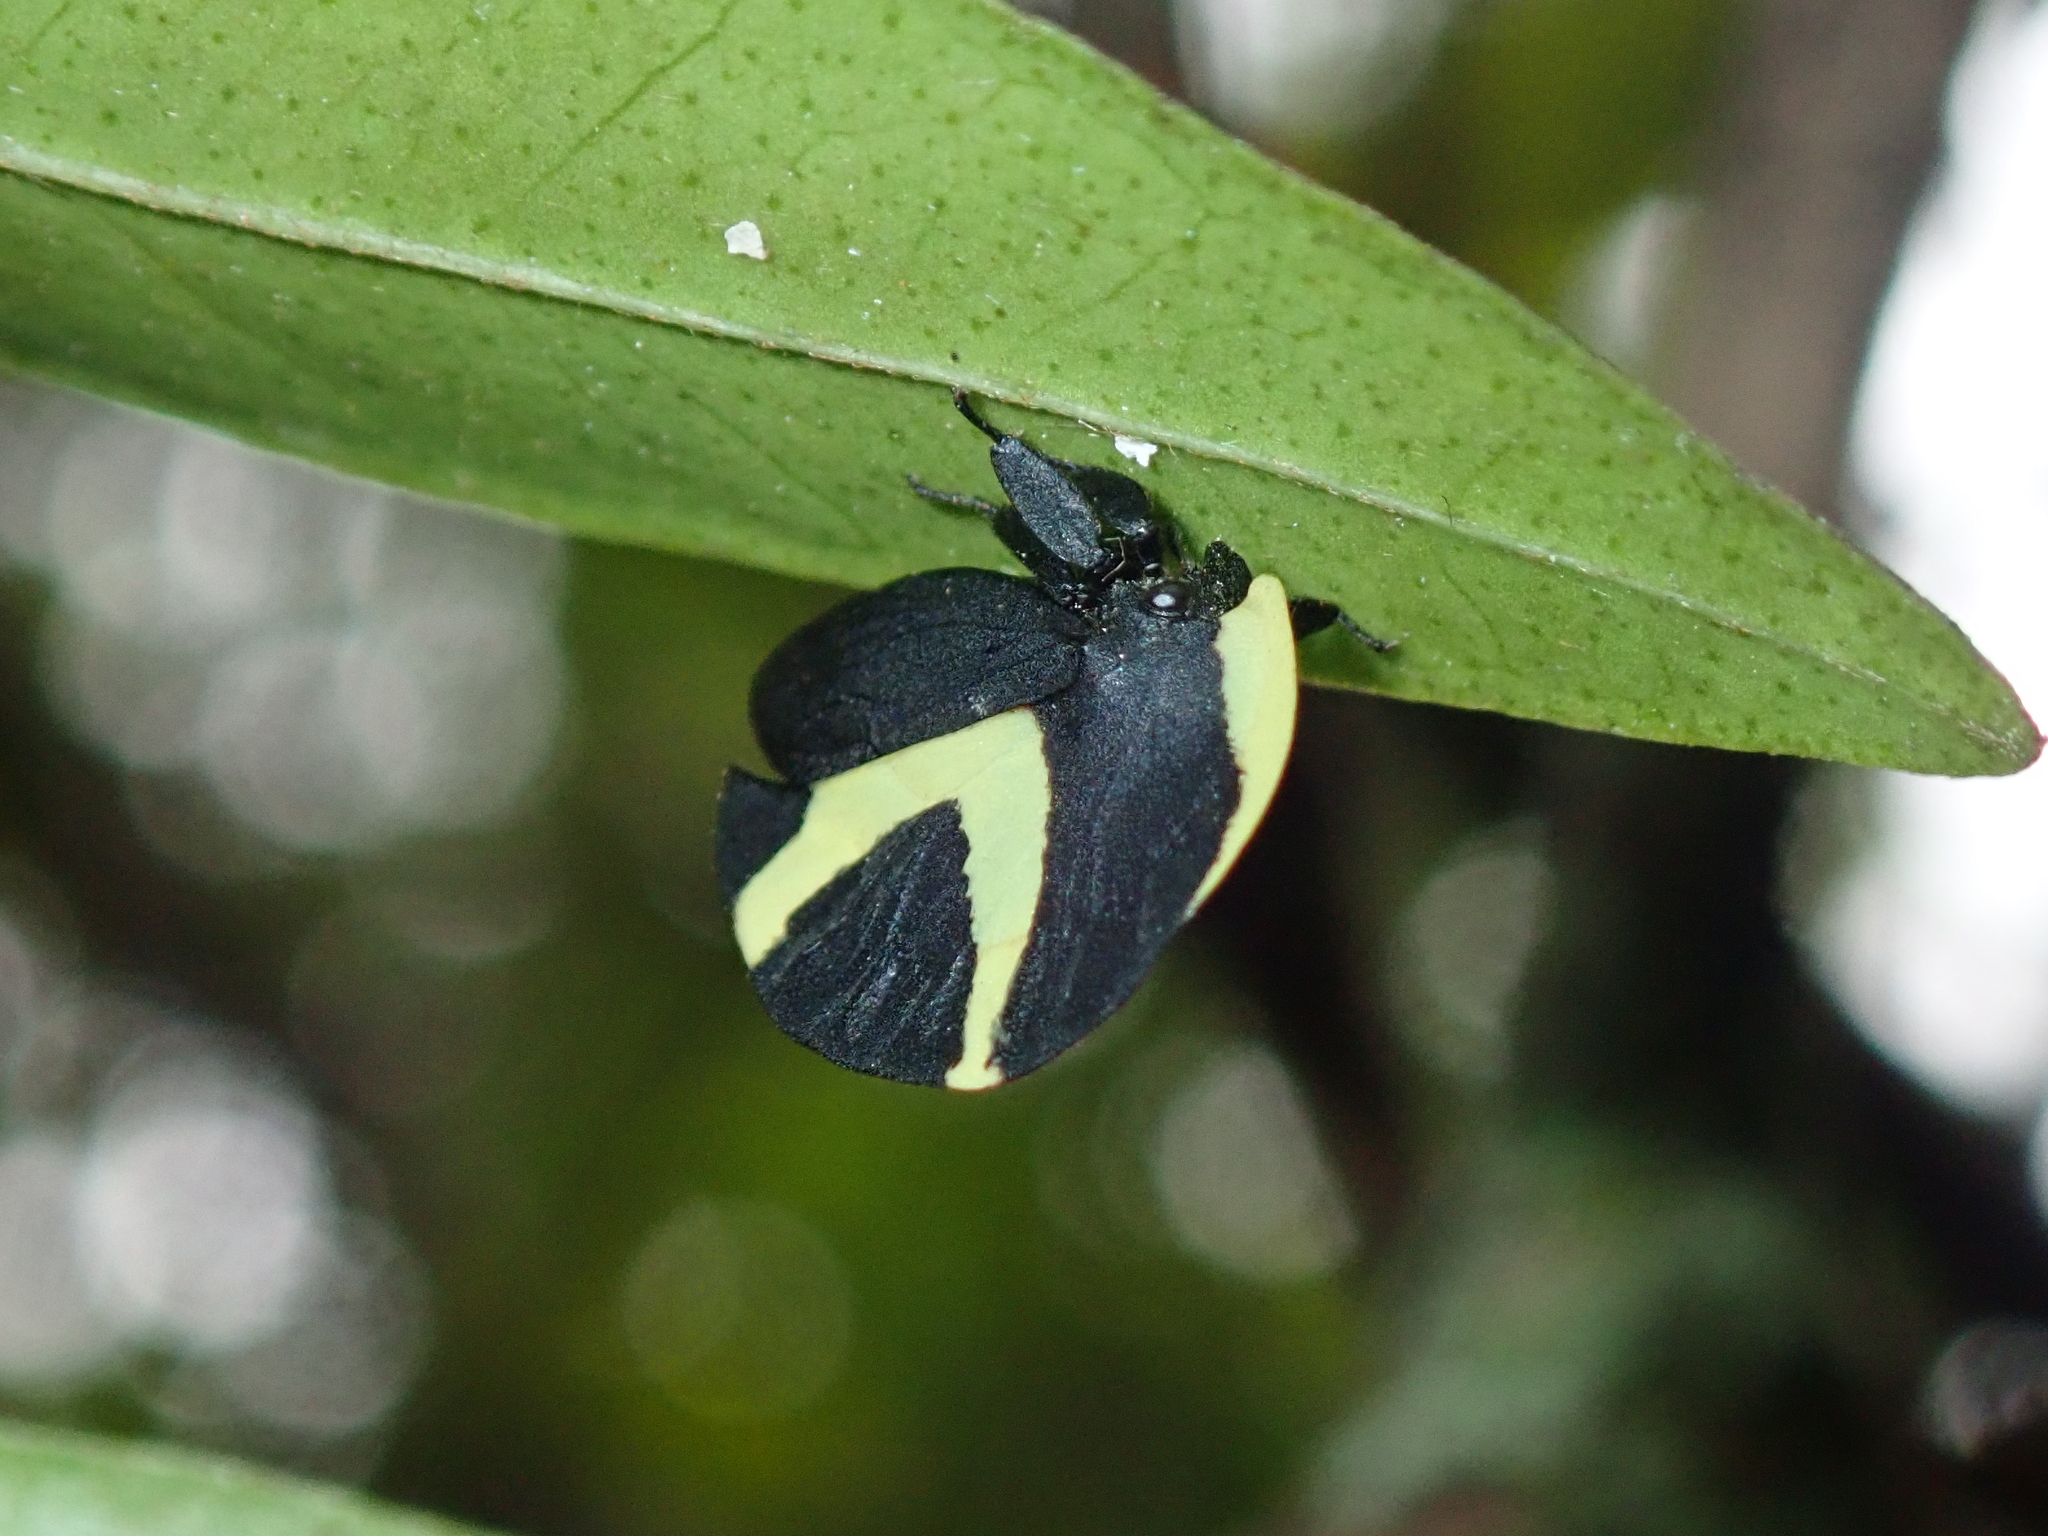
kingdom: Animalia
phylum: Arthropoda
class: Insecta
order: Hemiptera
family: Membracidae
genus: Membracis
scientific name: Membracis celsa
